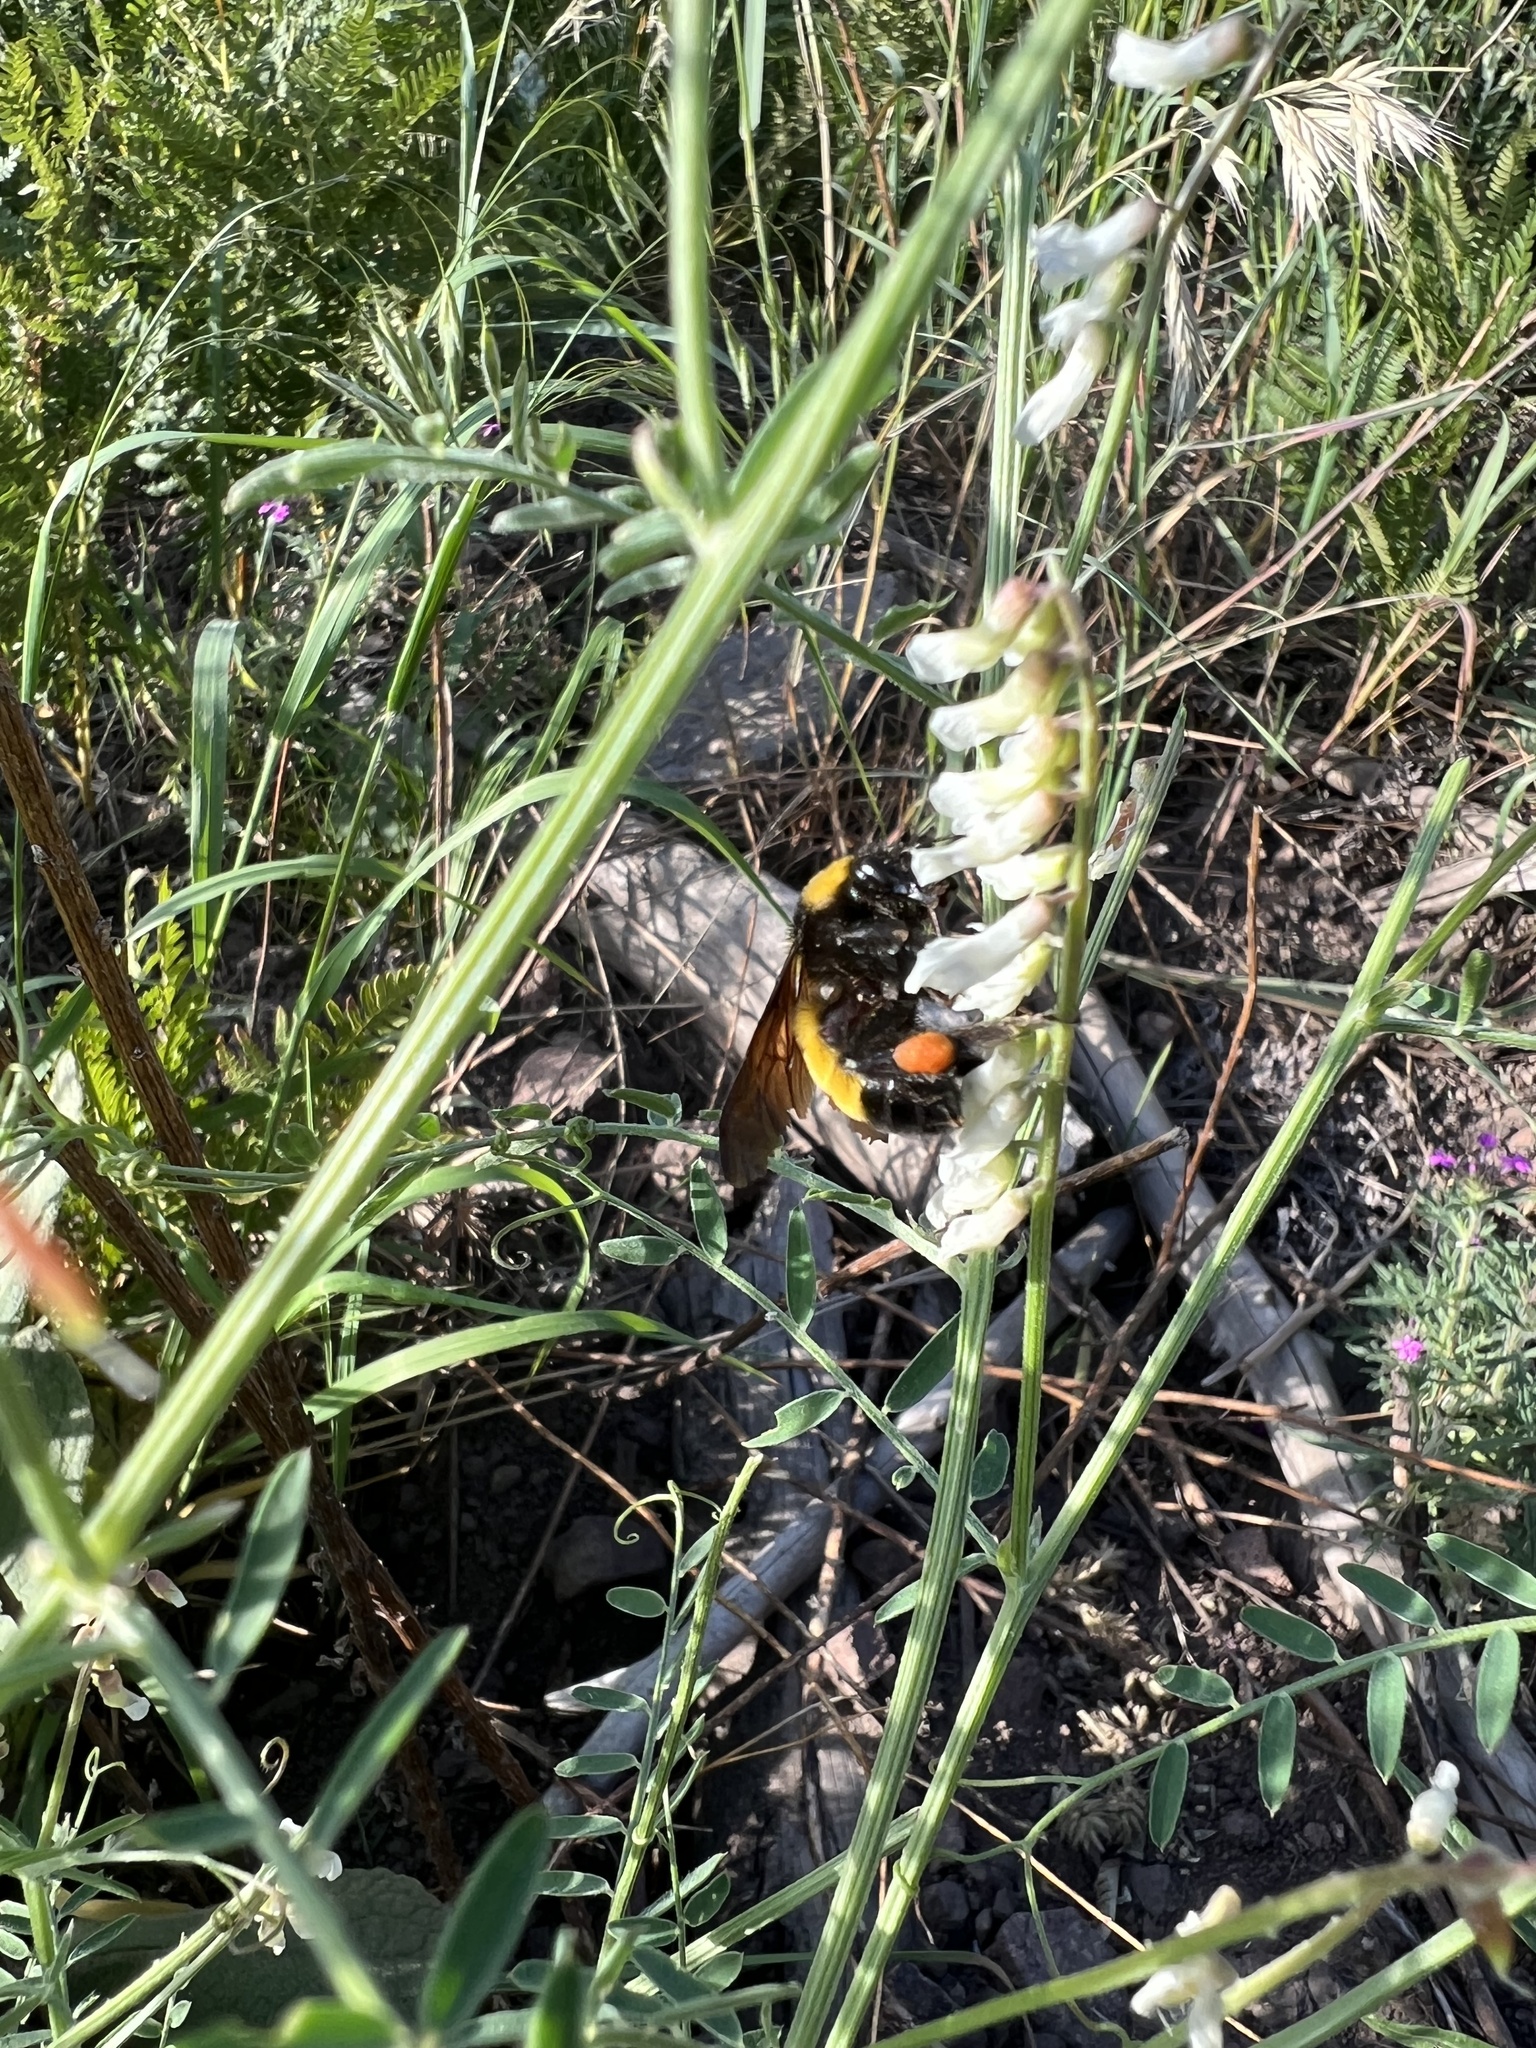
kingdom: Animalia
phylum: Arthropoda
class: Insecta
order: Hymenoptera
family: Apidae
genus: Bombus
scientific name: Bombus sonorus
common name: Sonoran bumble bee
